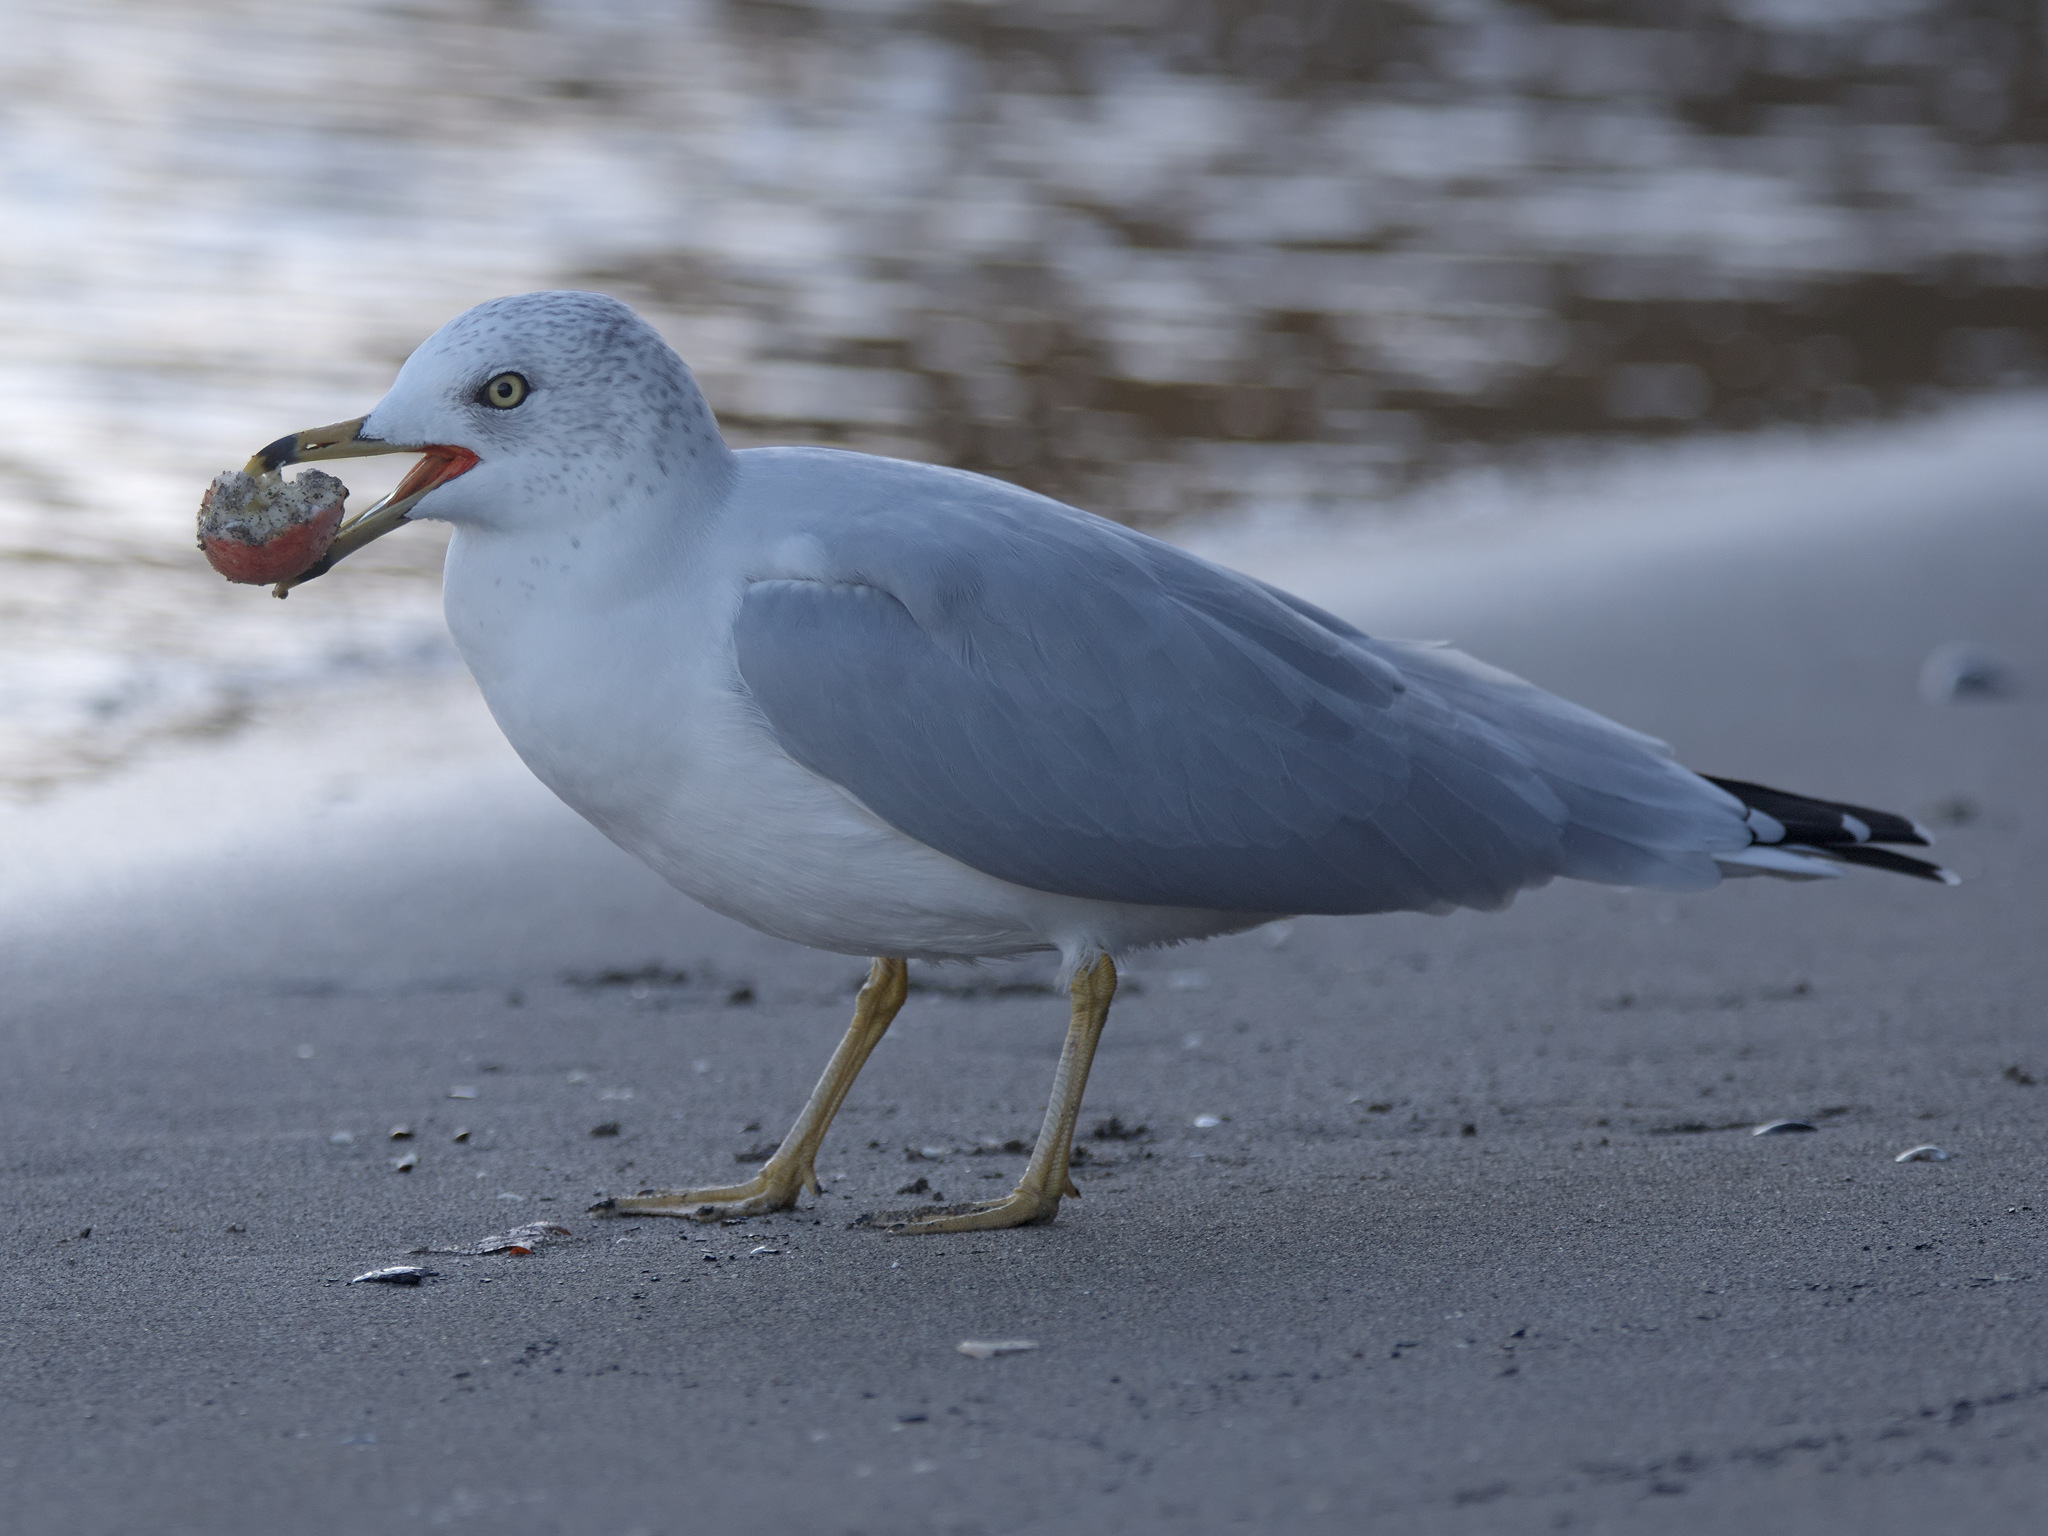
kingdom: Animalia
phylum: Chordata
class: Aves
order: Charadriiformes
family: Laridae
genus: Larus
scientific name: Larus delawarensis
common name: Ring-billed gull
